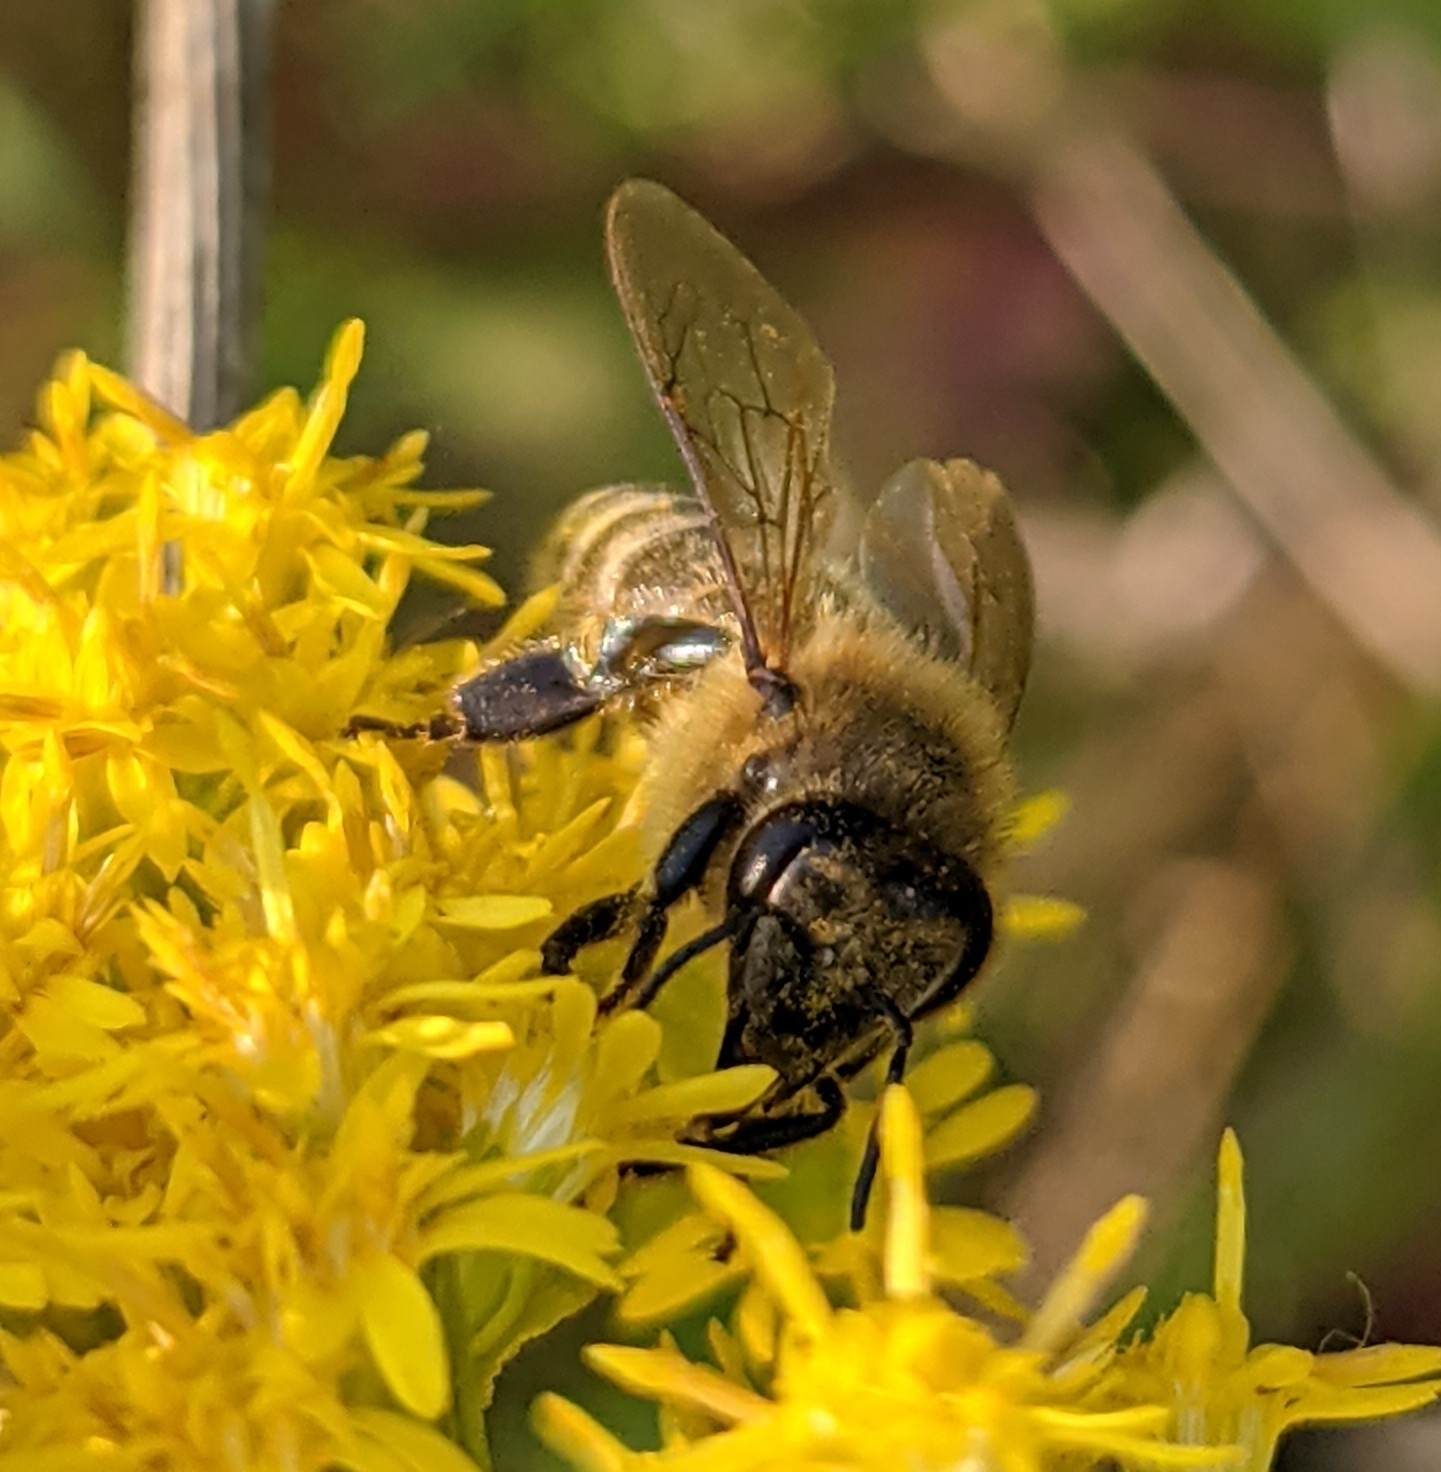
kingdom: Animalia
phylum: Arthropoda
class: Insecta
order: Hymenoptera
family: Apidae
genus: Apis
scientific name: Apis mellifera
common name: Honey bee
